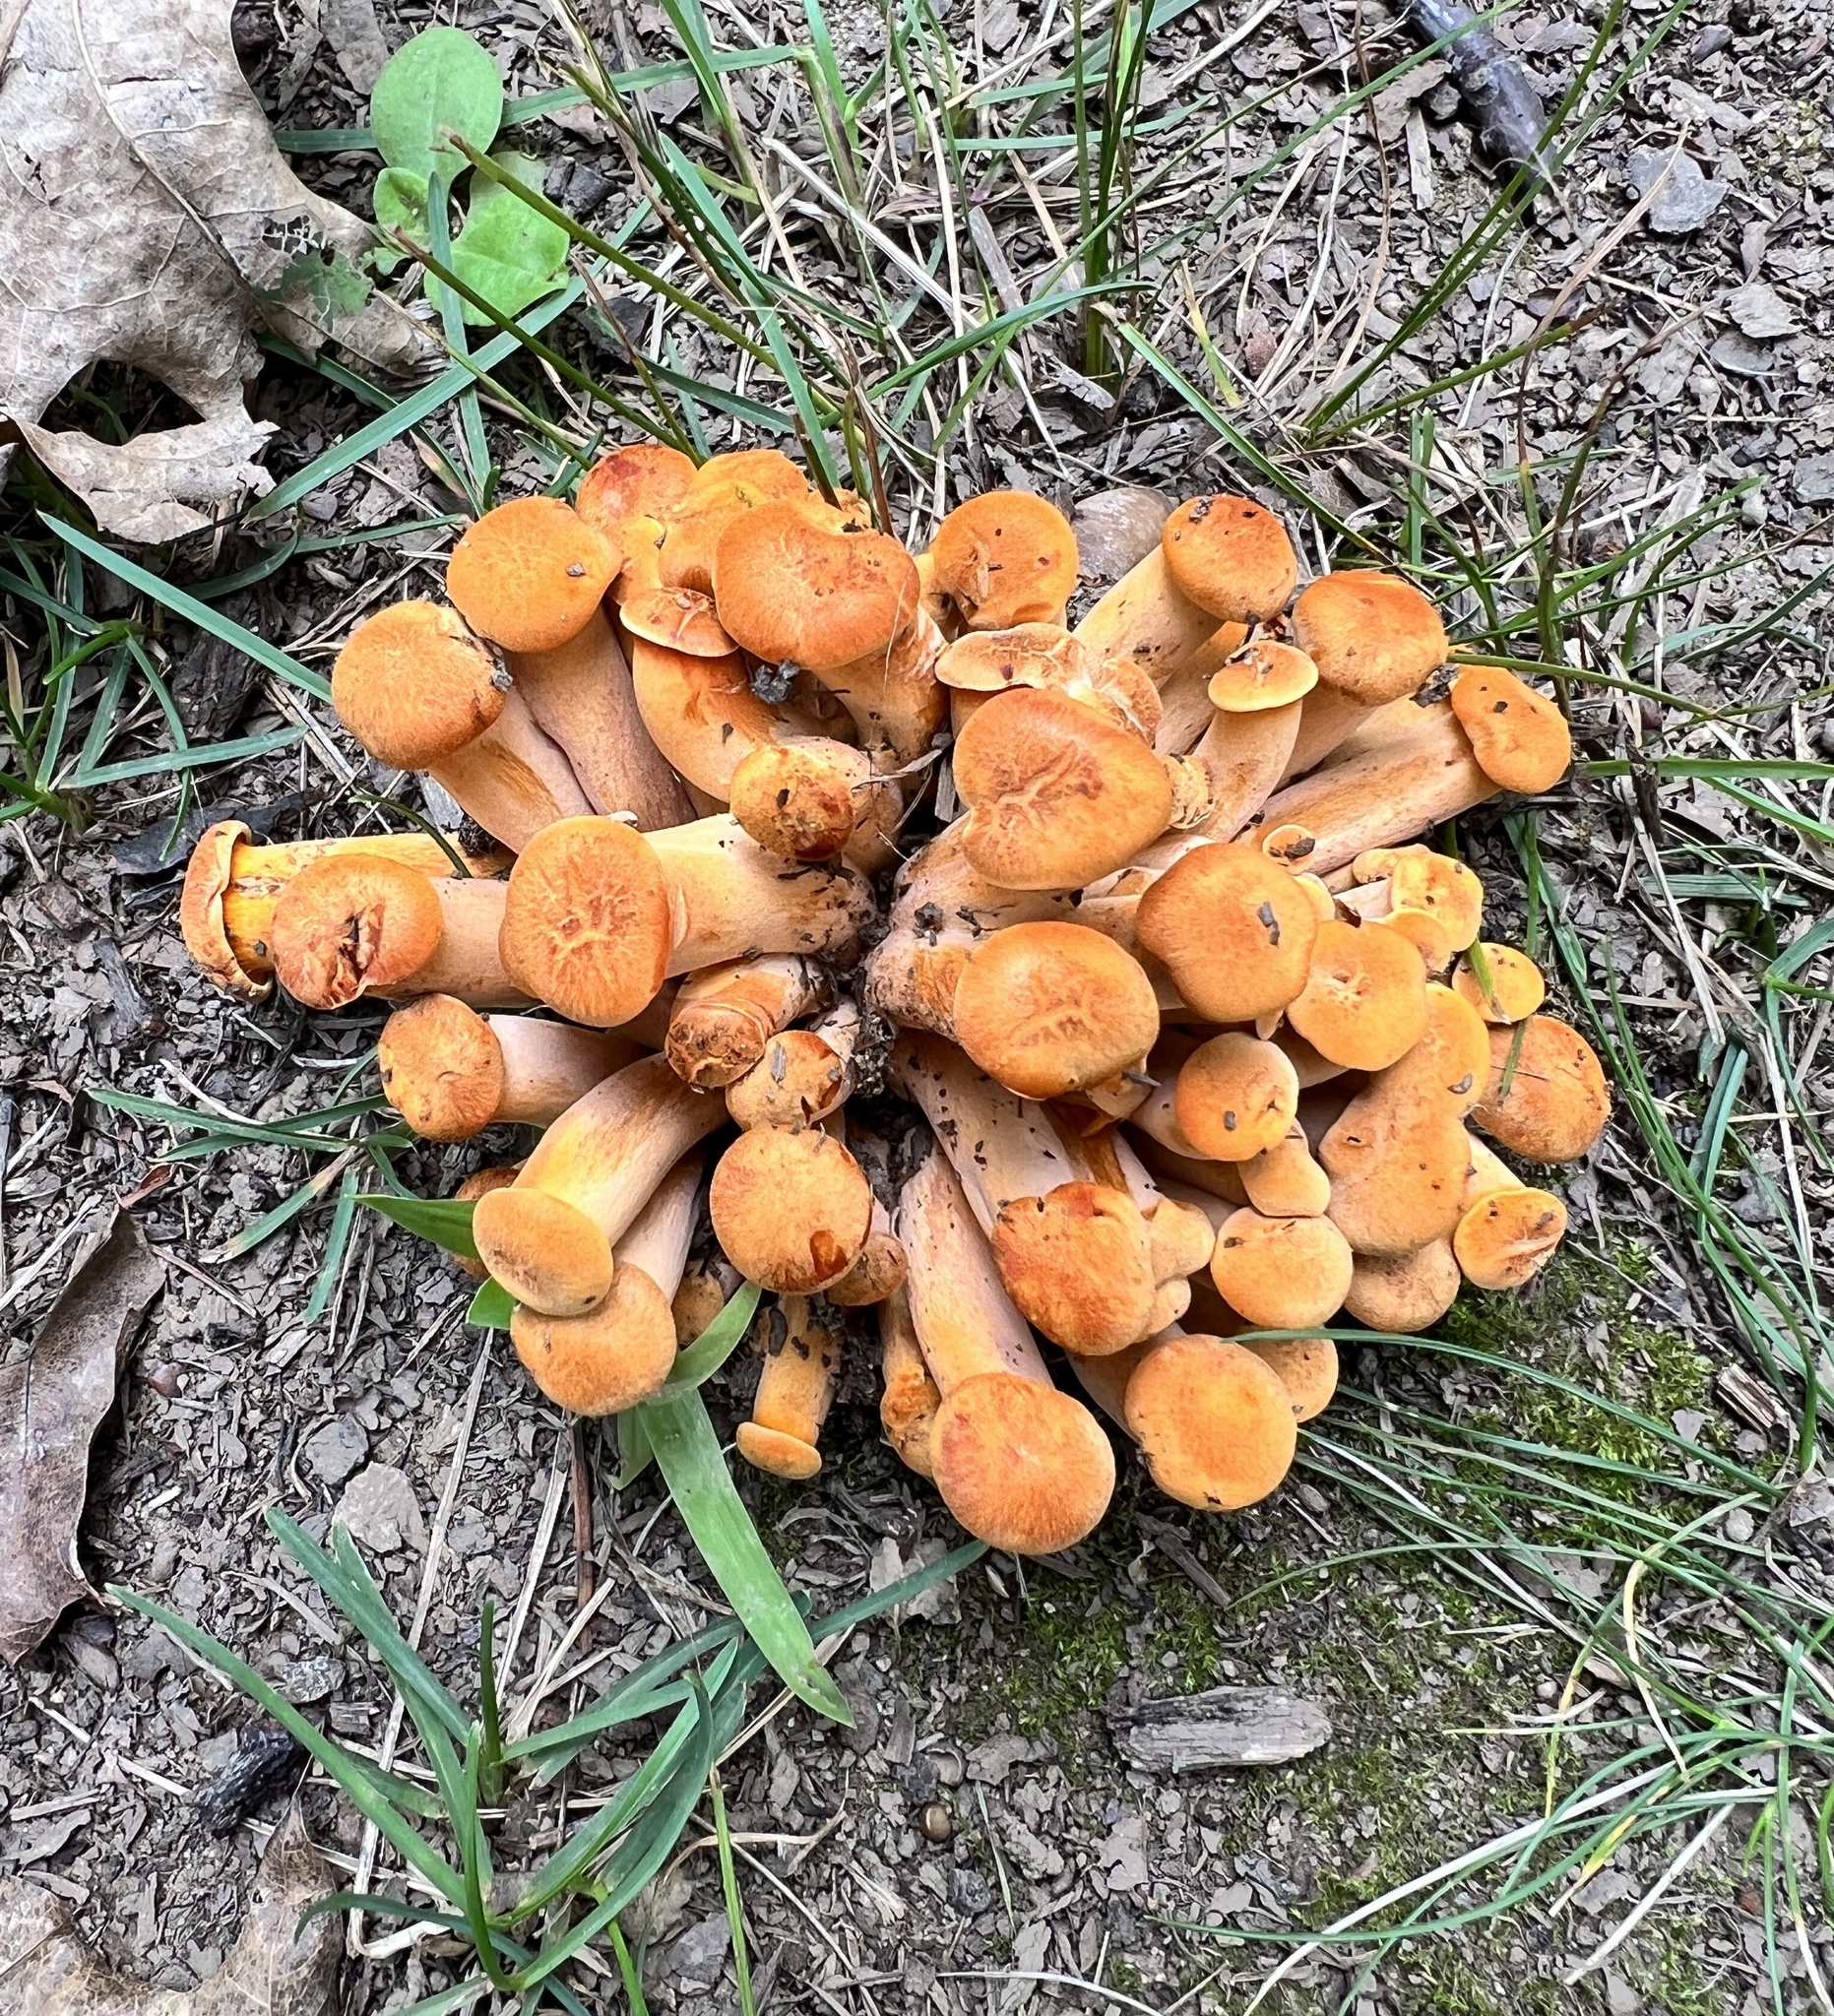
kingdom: Fungi
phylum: Basidiomycota
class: Agaricomycetes
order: Agaricales
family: Omphalotaceae
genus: Omphalotus
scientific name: Omphalotus illudens
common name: Jack o lantern
